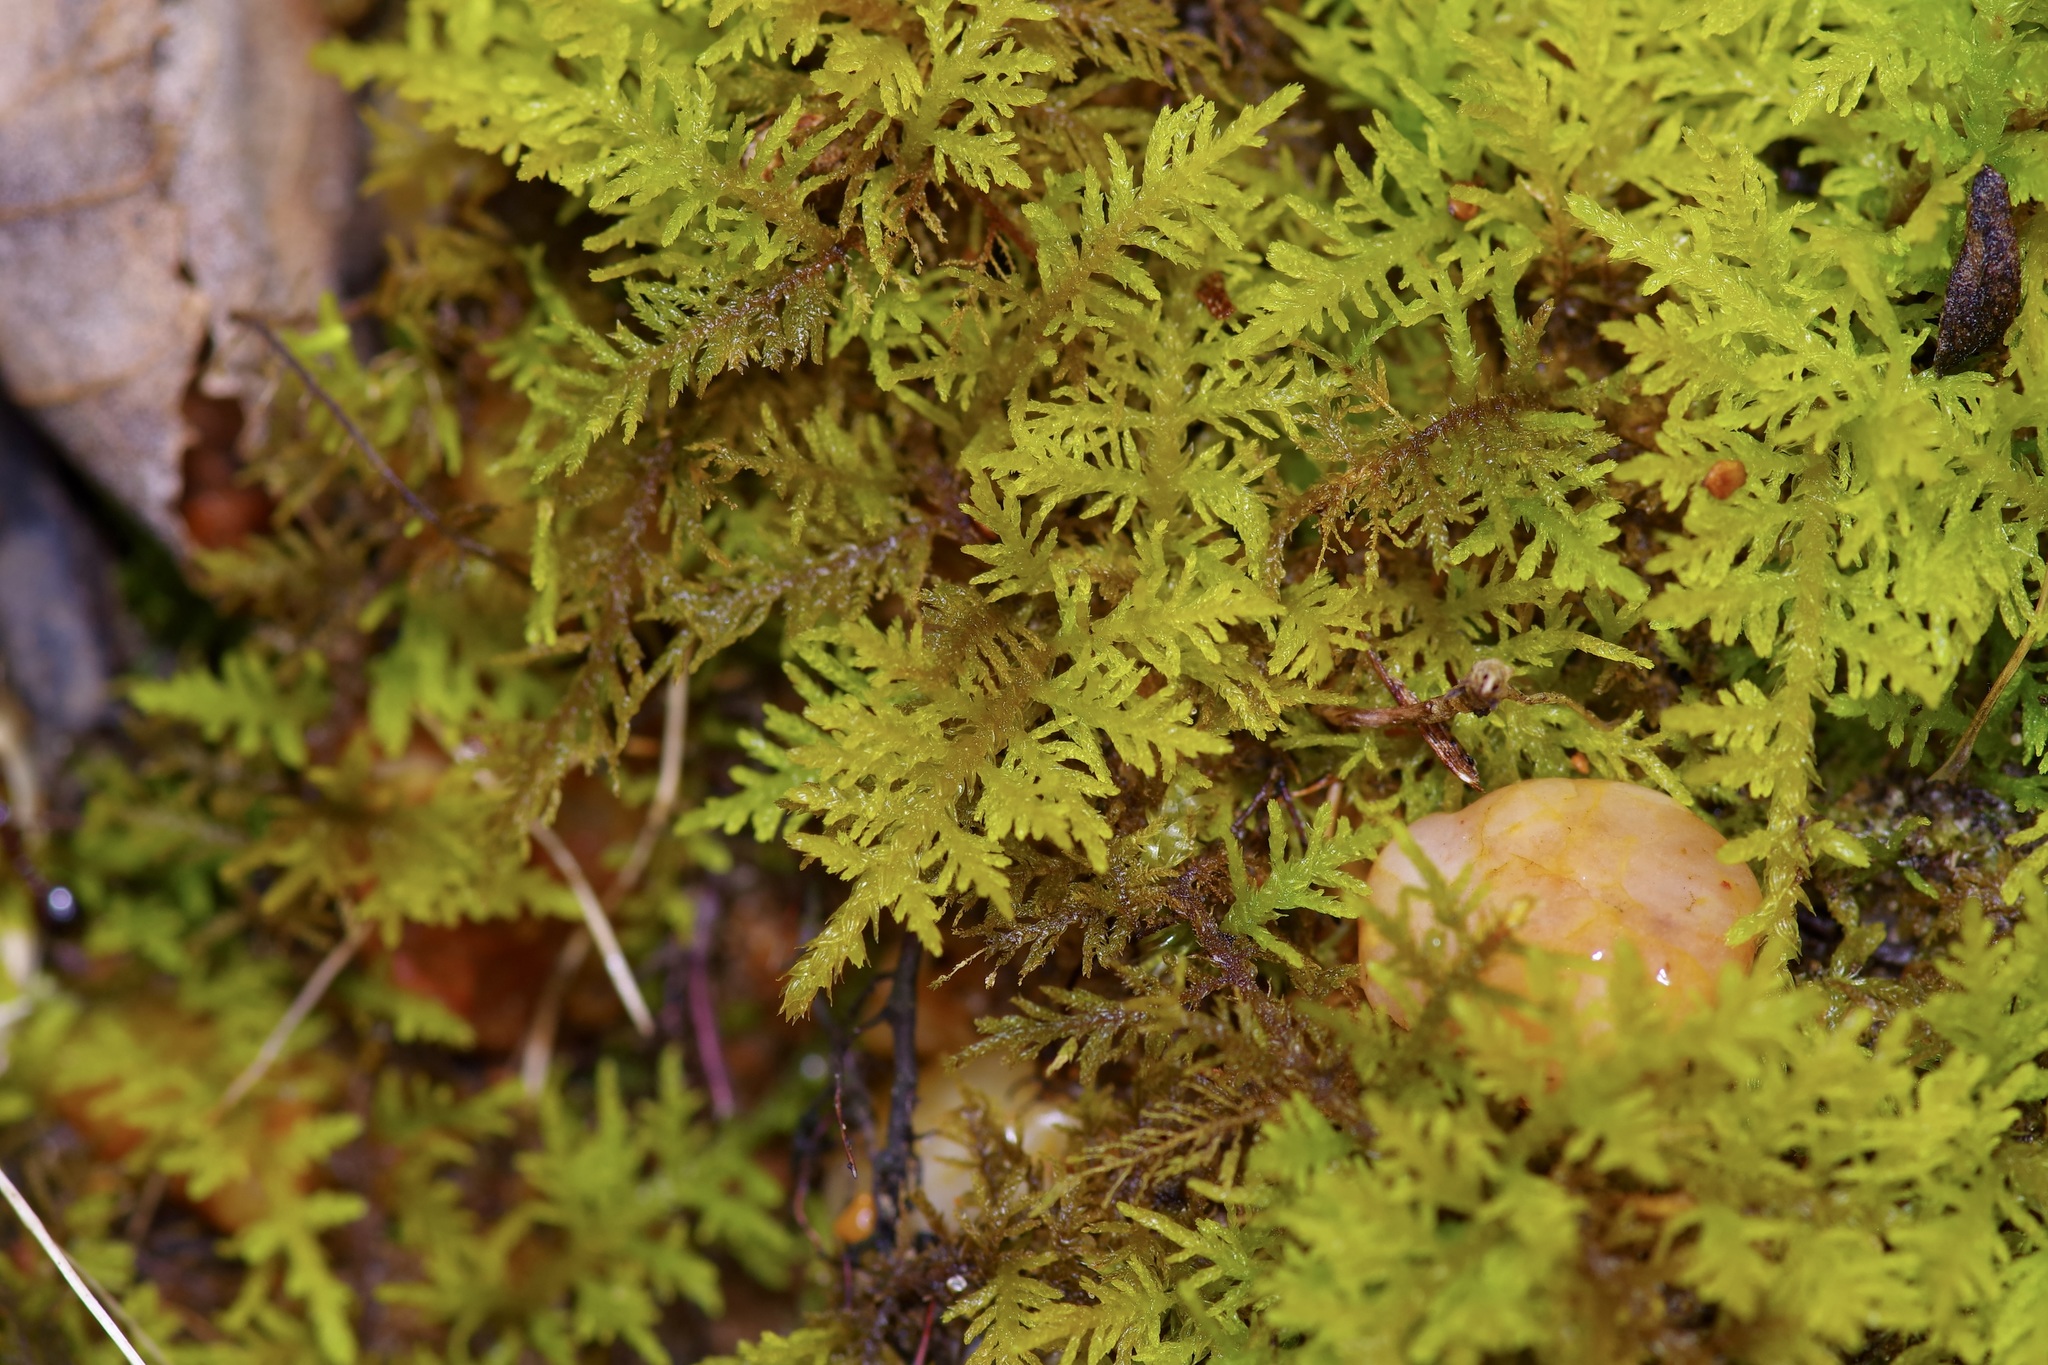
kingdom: Plantae
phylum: Bryophyta
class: Bryopsida
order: Hypnales
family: Thuidiaceae
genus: Thuidium
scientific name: Thuidium delicatulum
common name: Delicate fern moss
